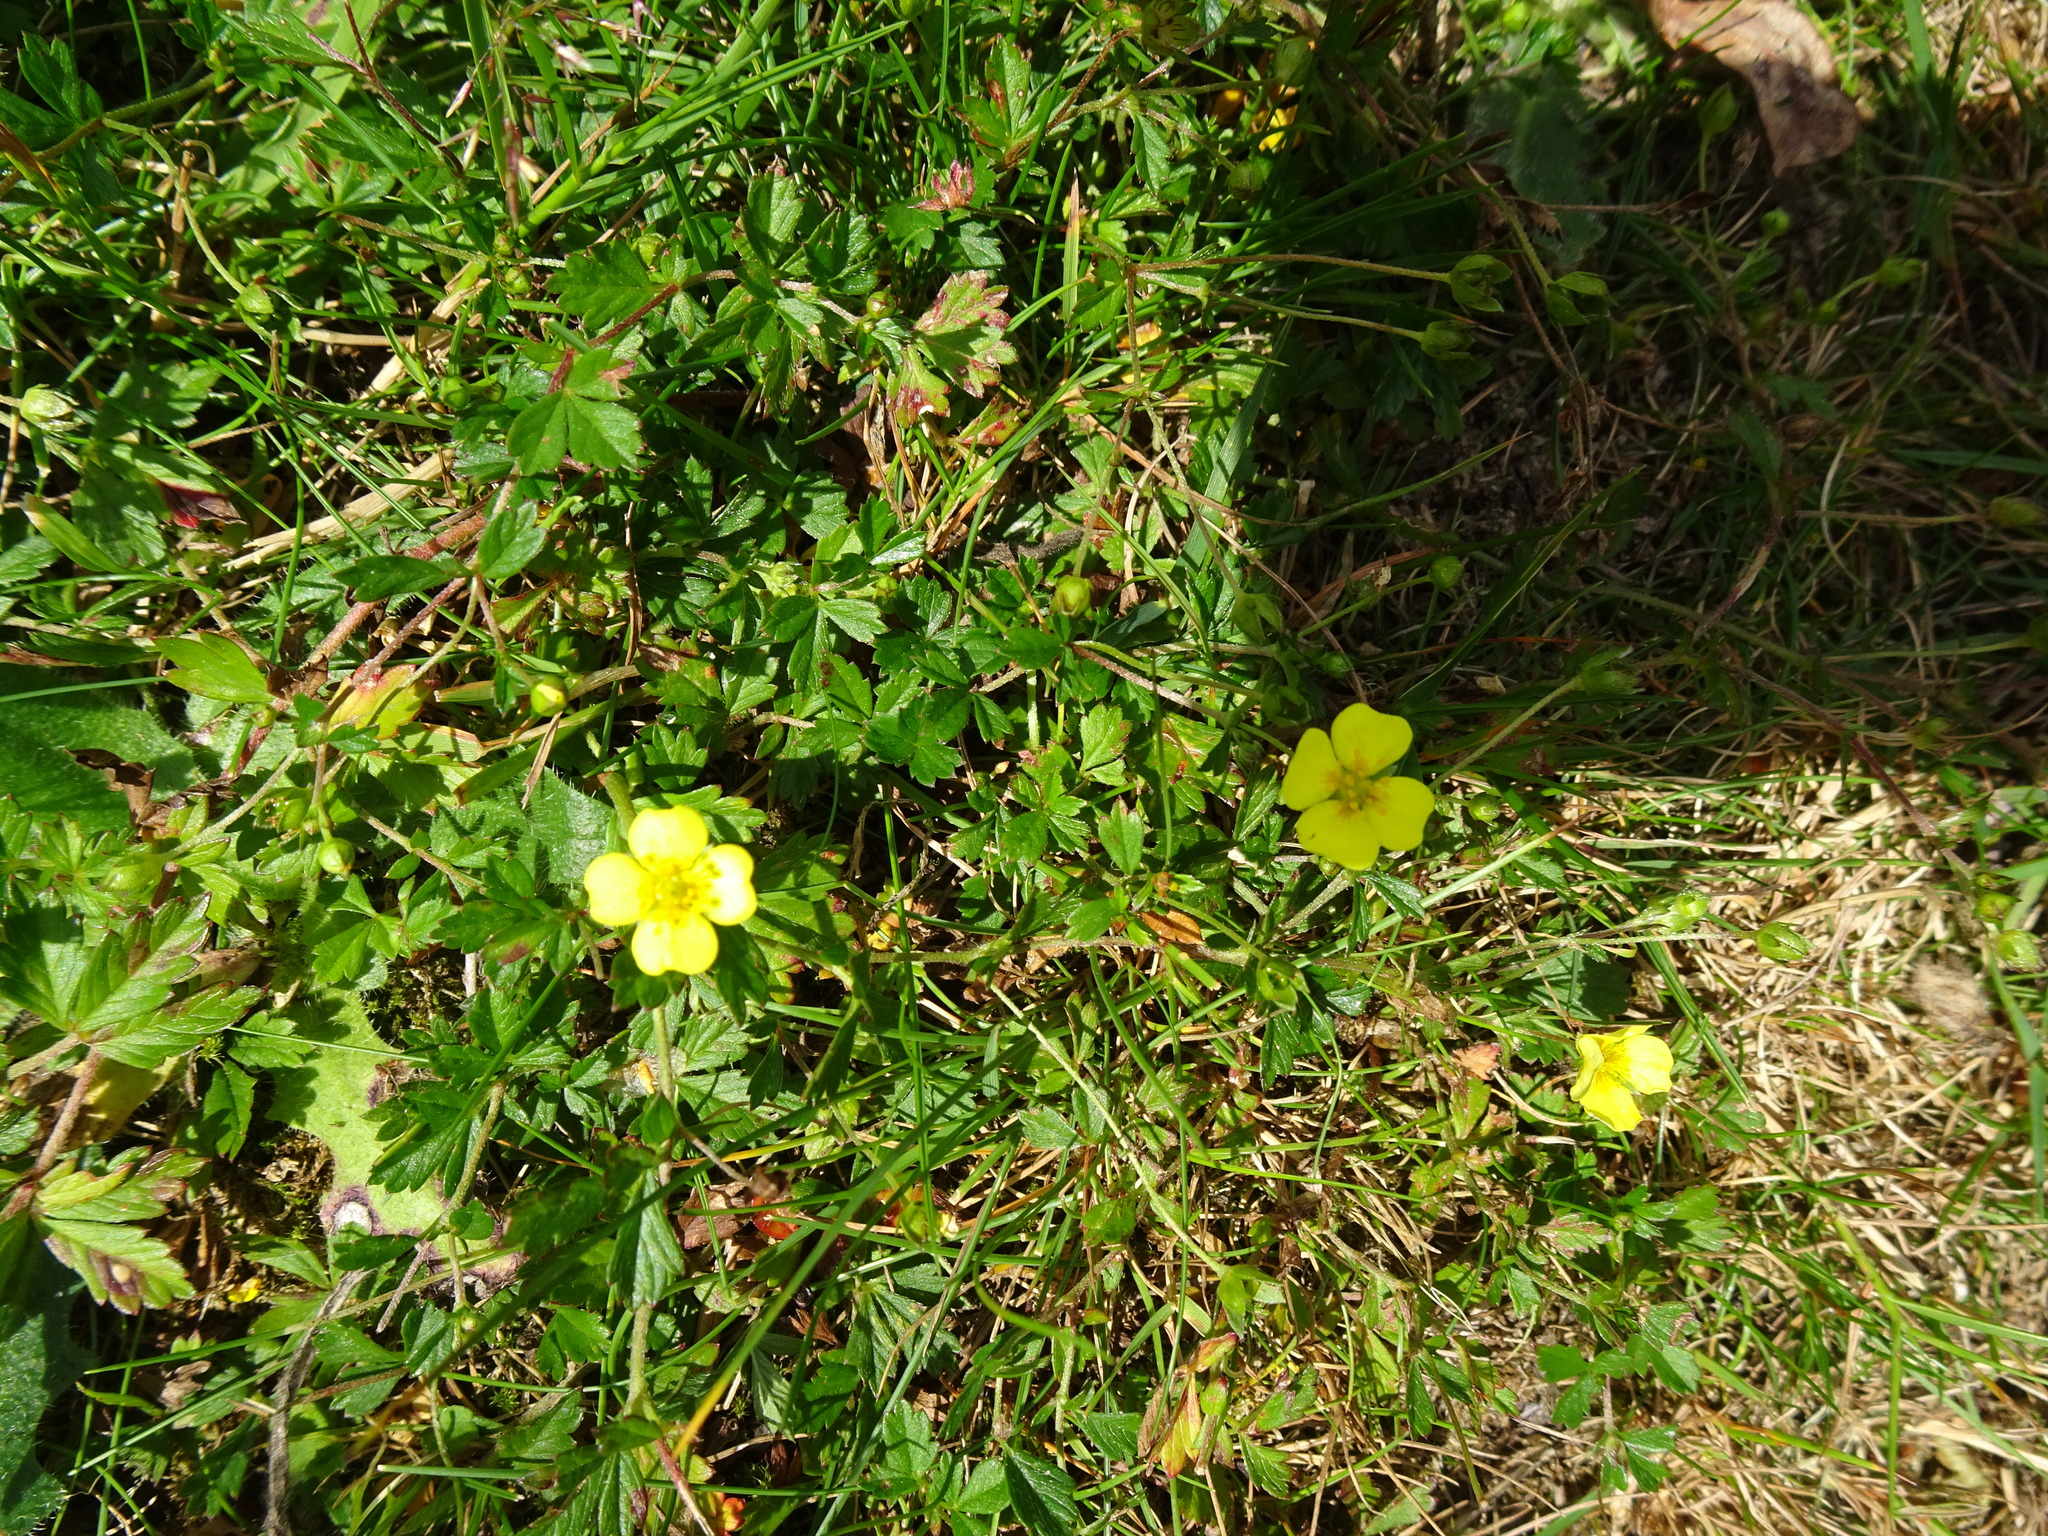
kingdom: Plantae
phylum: Tracheophyta
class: Magnoliopsida
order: Rosales
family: Rosaceae
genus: Potentilla
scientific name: Potentilla erecta
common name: Tormentil
